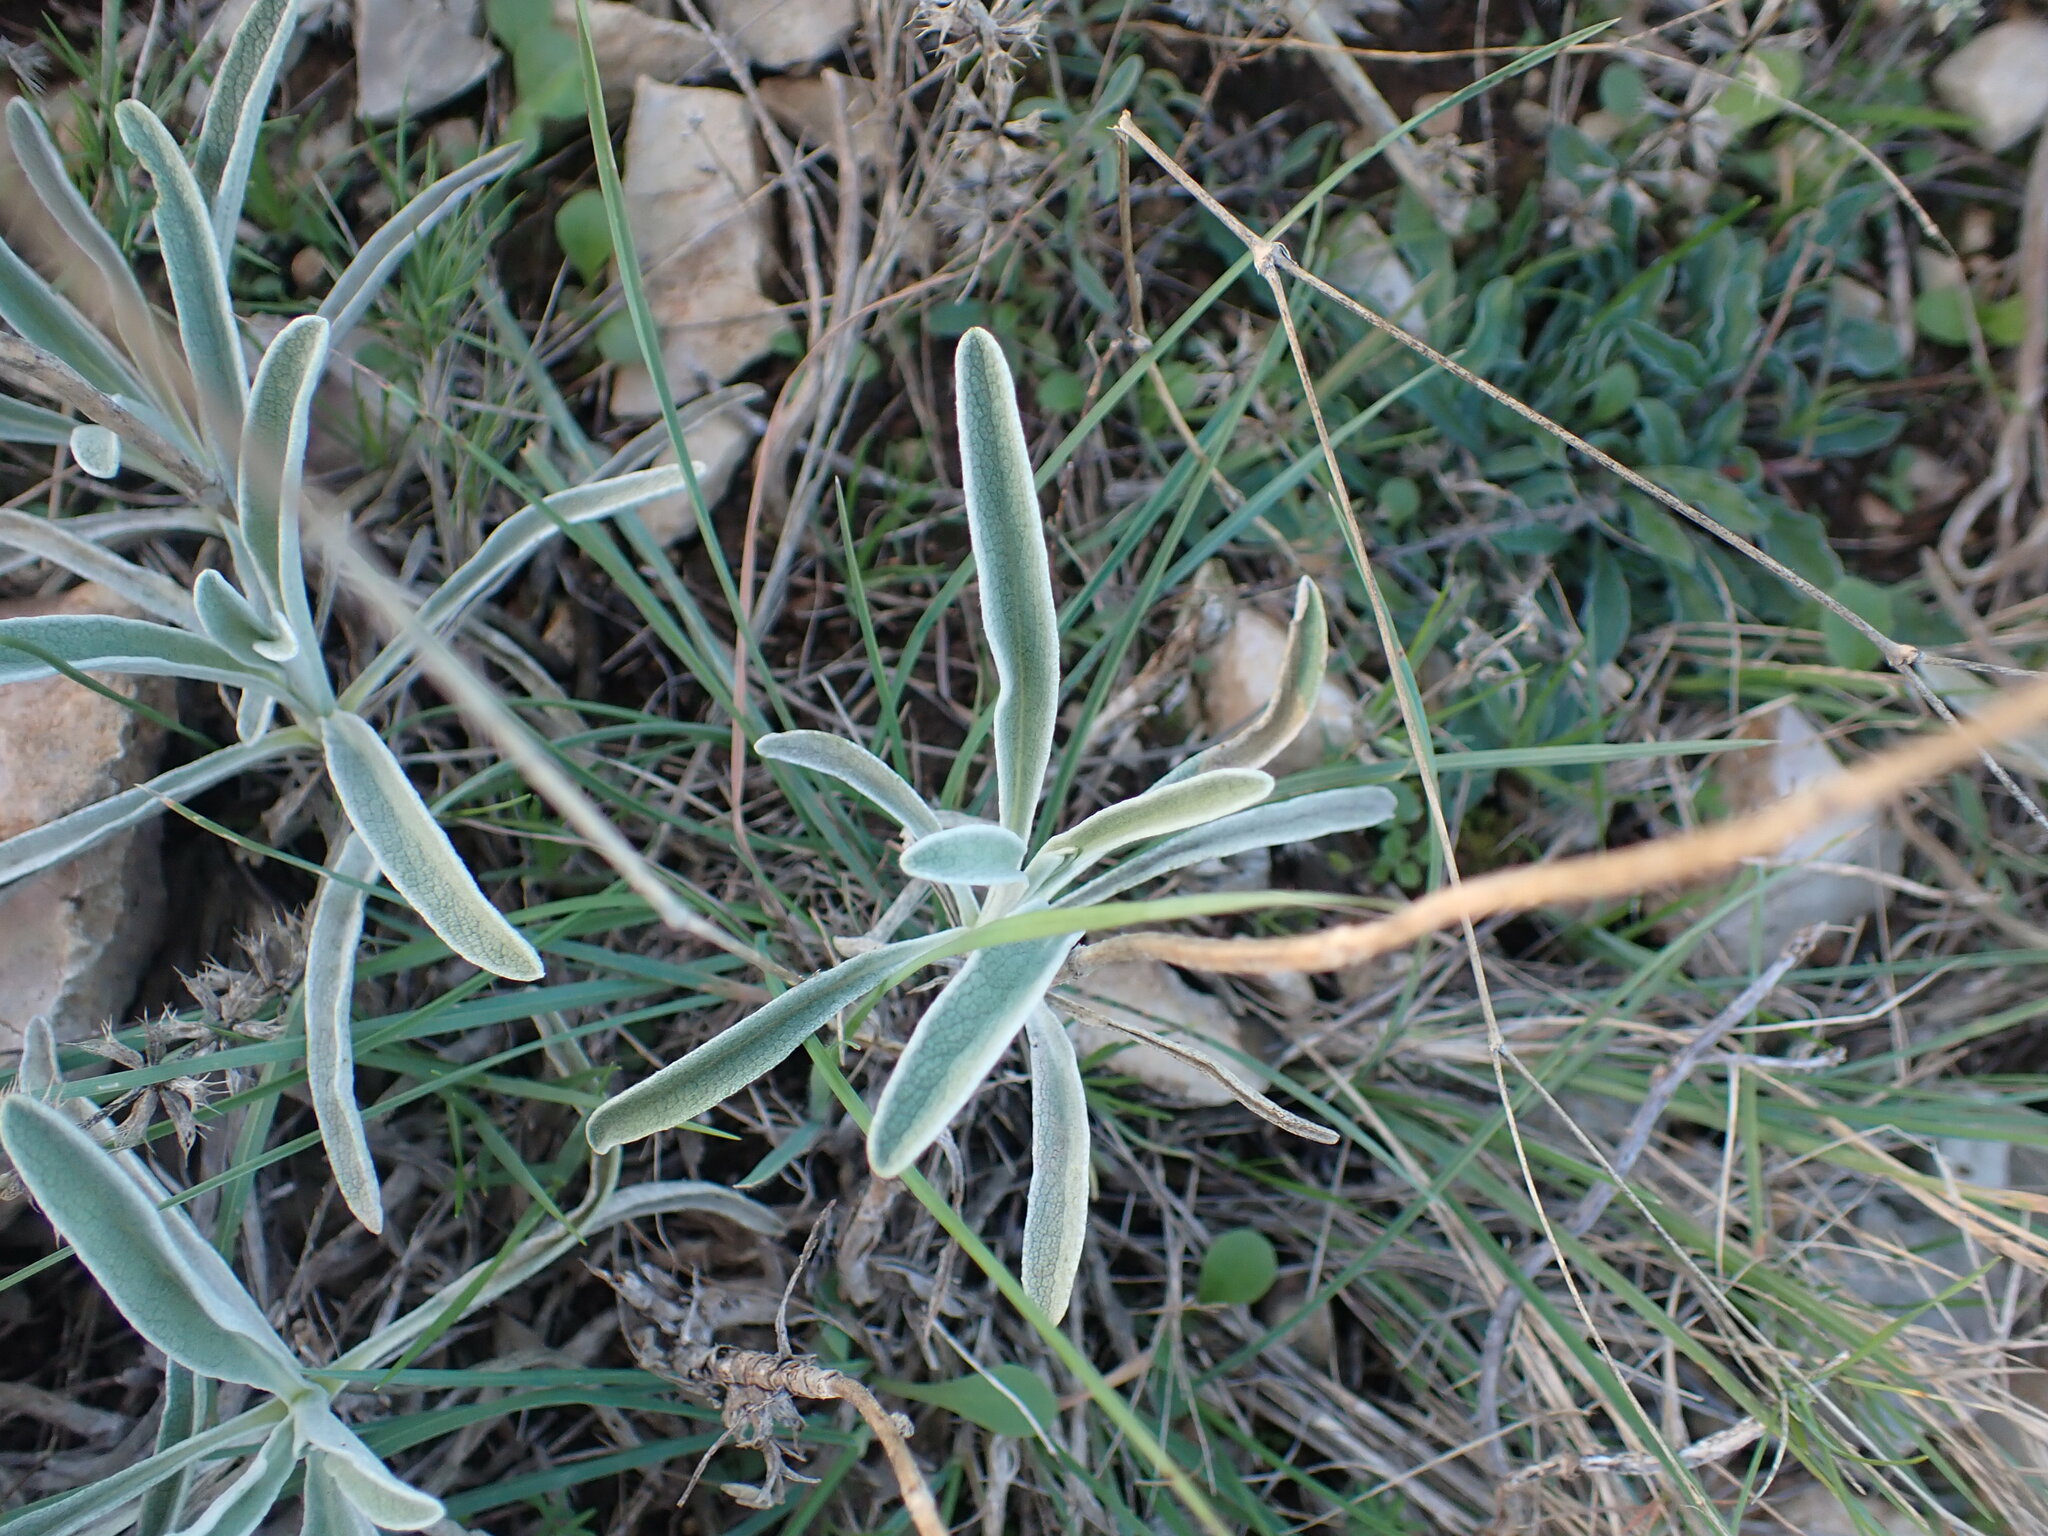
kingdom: Plantae
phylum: Tracheophyta
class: Magnoliopsida
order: Lamiales
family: Lamiaceae
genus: Phlomis
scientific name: Phlomis lychnitis
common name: Lampwickplant
